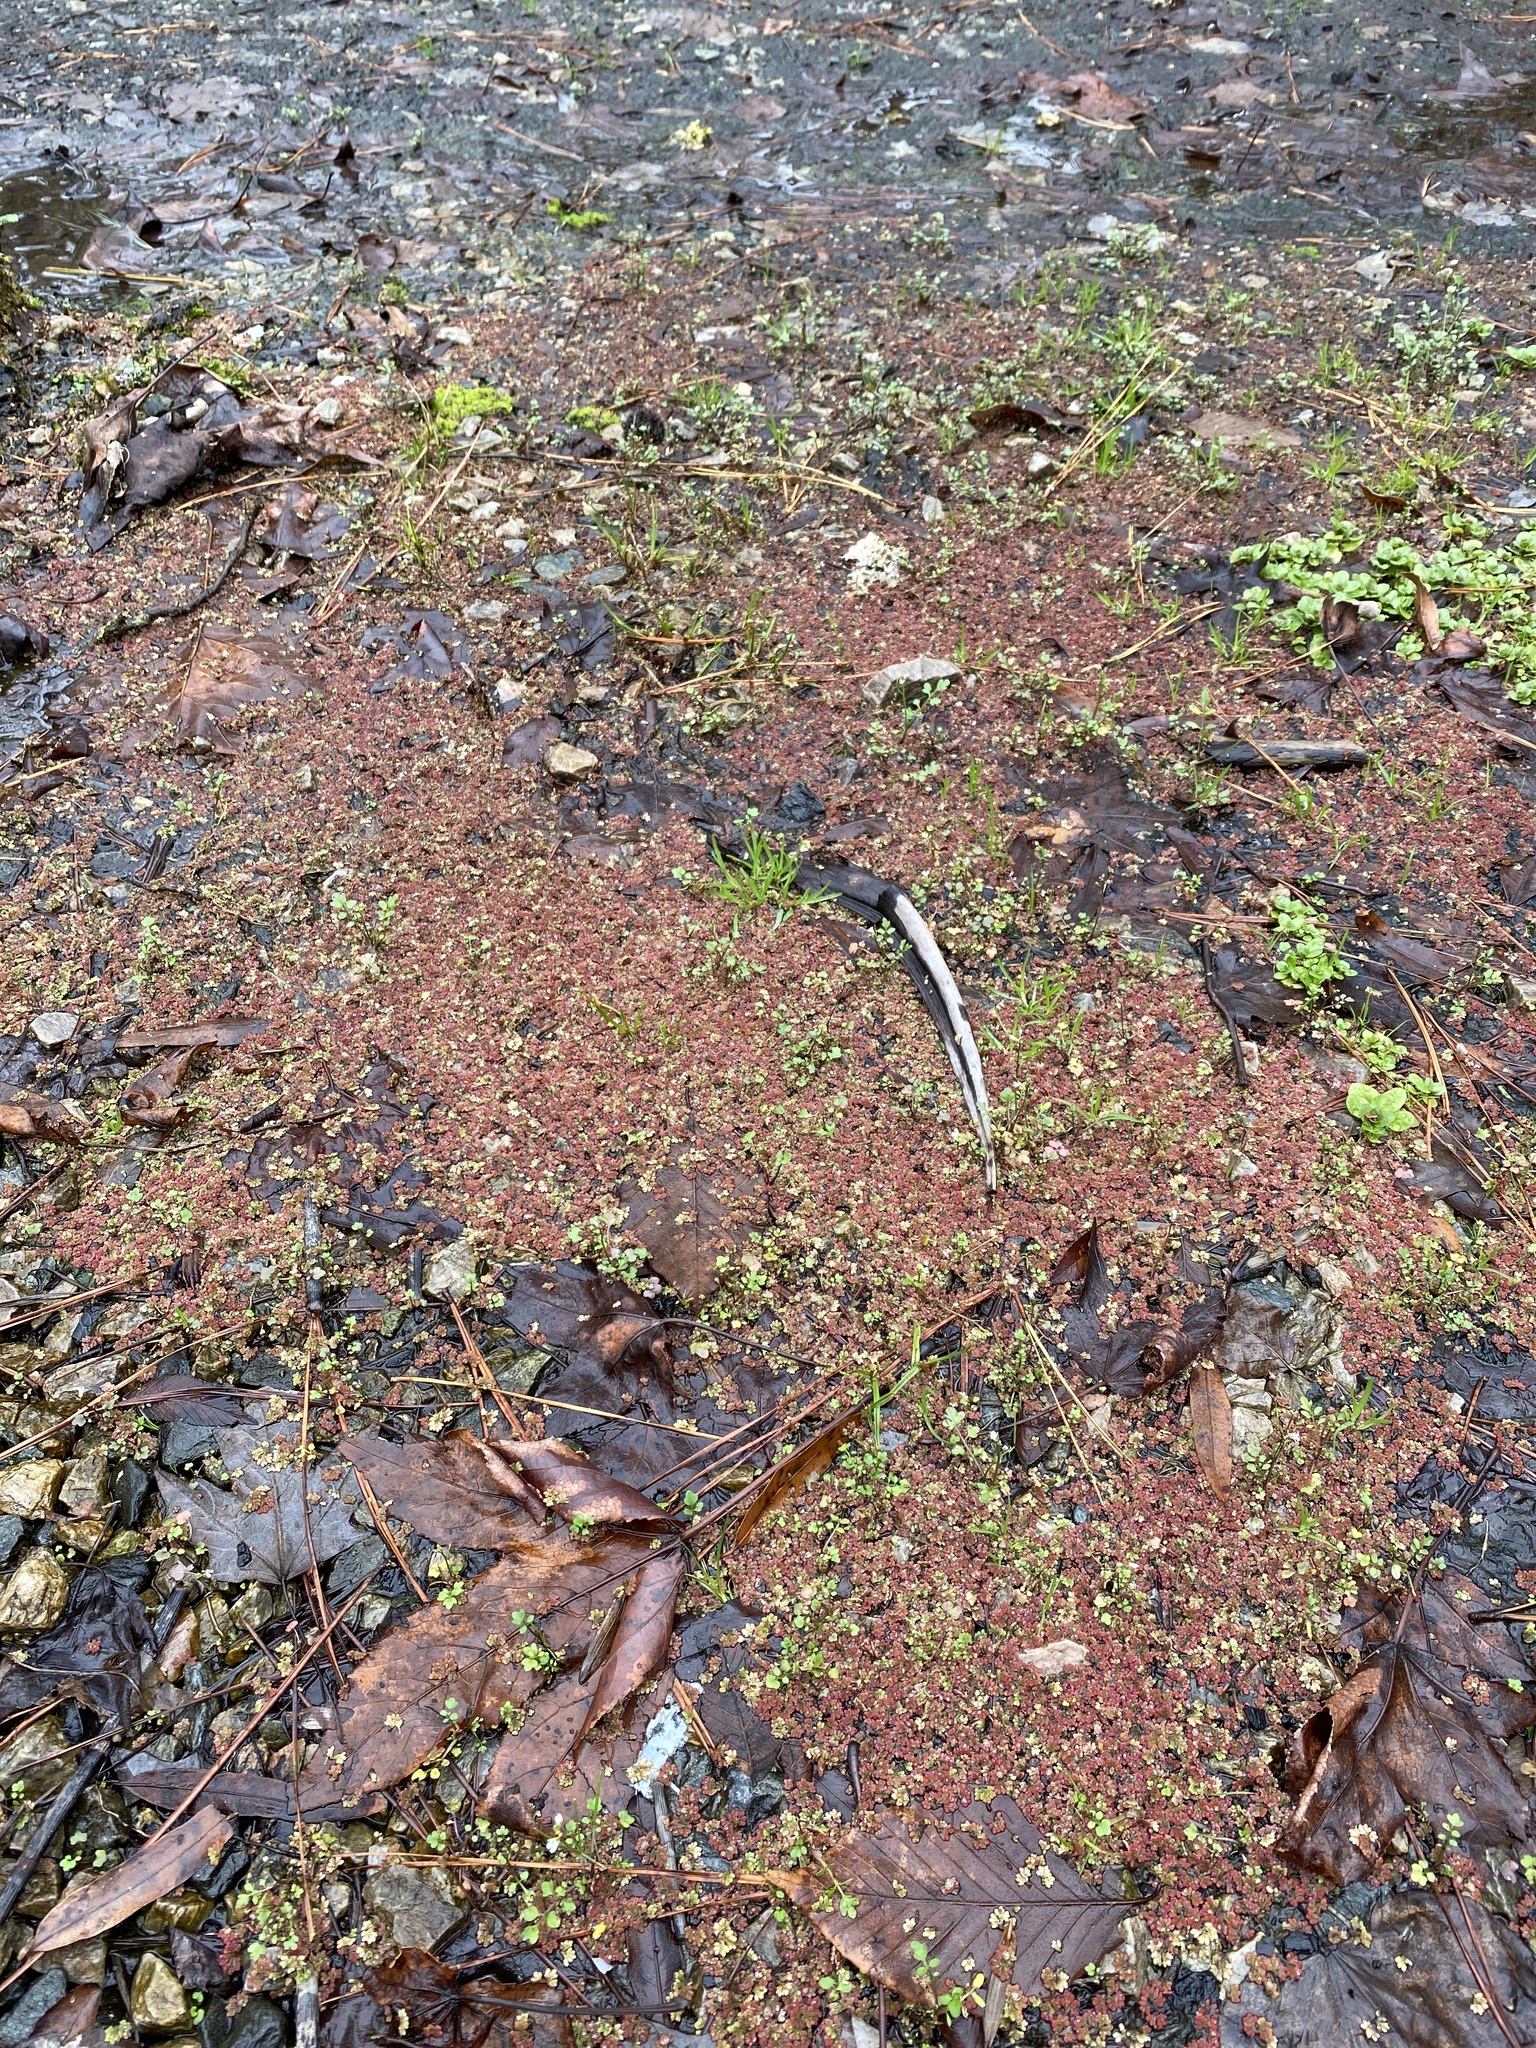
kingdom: Plantae
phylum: Tracheophyta
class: Polypodiopsida
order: Salviniales
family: Salviniaceae
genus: Azolla
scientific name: Azolla caroliniana
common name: Carolina mosquitofern
